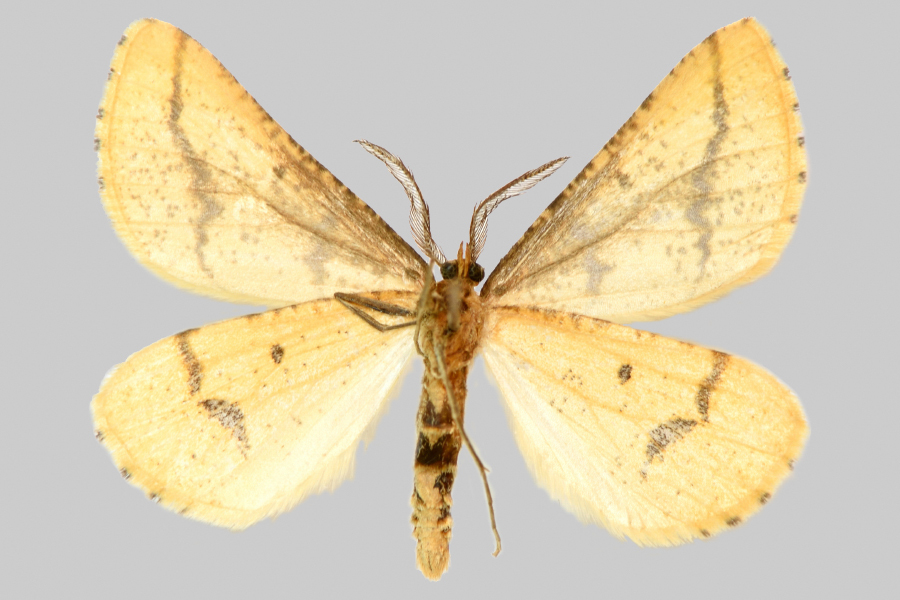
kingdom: Animalia
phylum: Arthropoda
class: Insecta
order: Lepidoptera
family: Geometridae
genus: Aspitates
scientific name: Aspitates ochrearia
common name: Yellow belle
